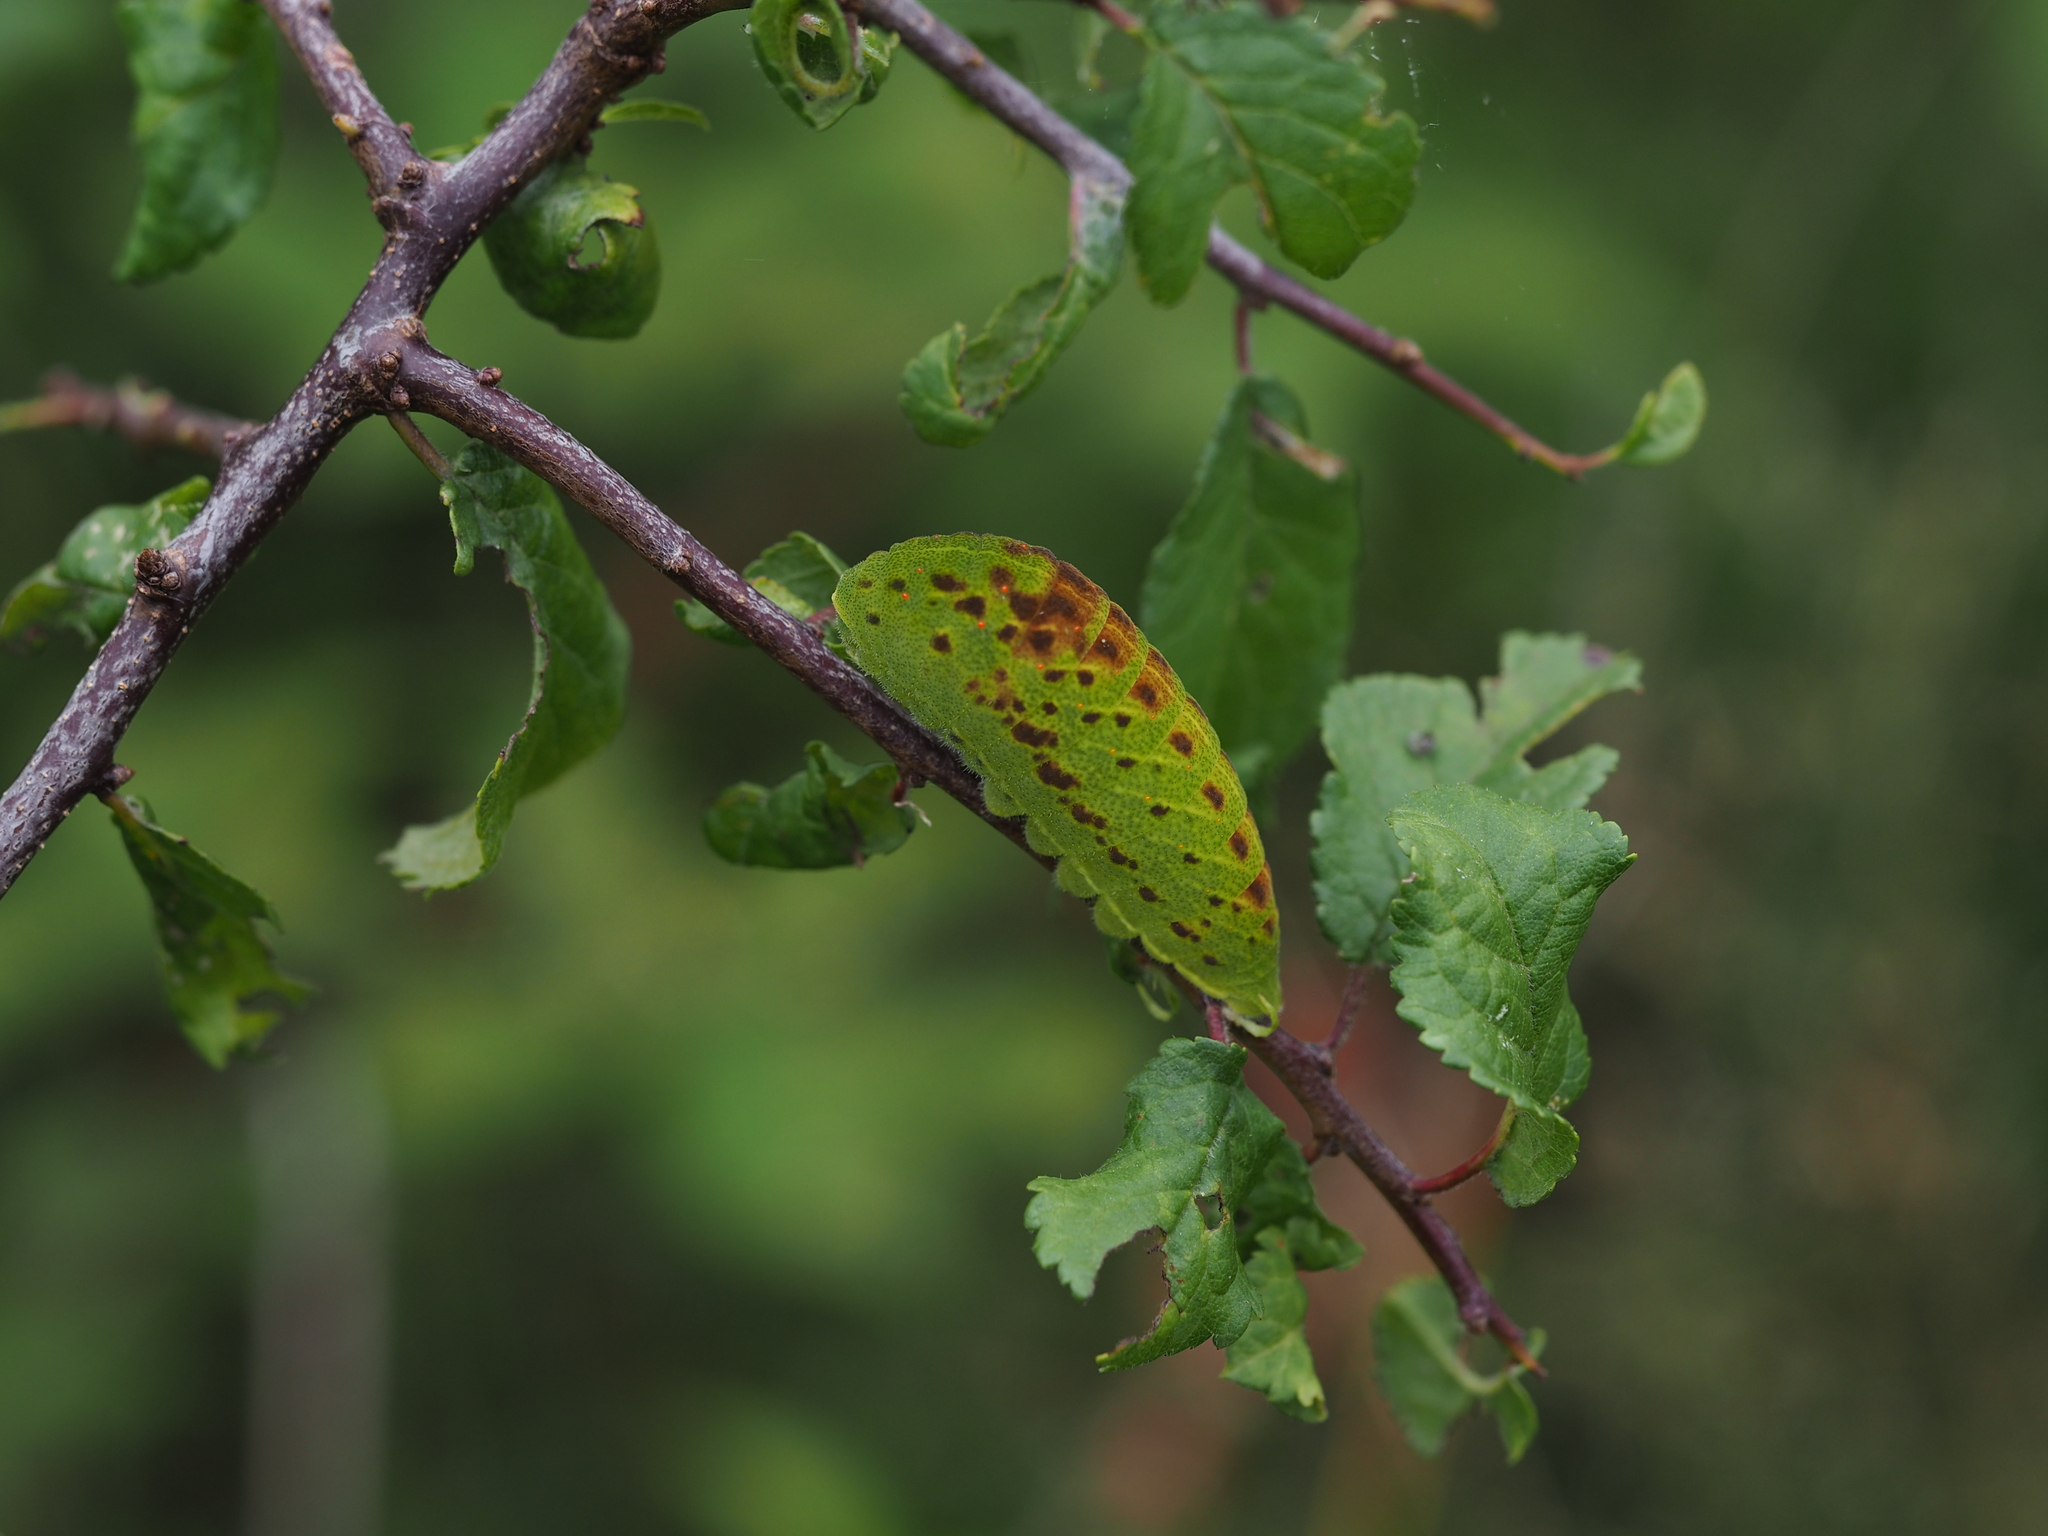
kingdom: Animalia
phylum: Arthropoda
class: Insecta
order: Lepidoptera
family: Papilionidae
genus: Iphiclides
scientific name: Iphiclides podalirius
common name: Scarce swallowtail
